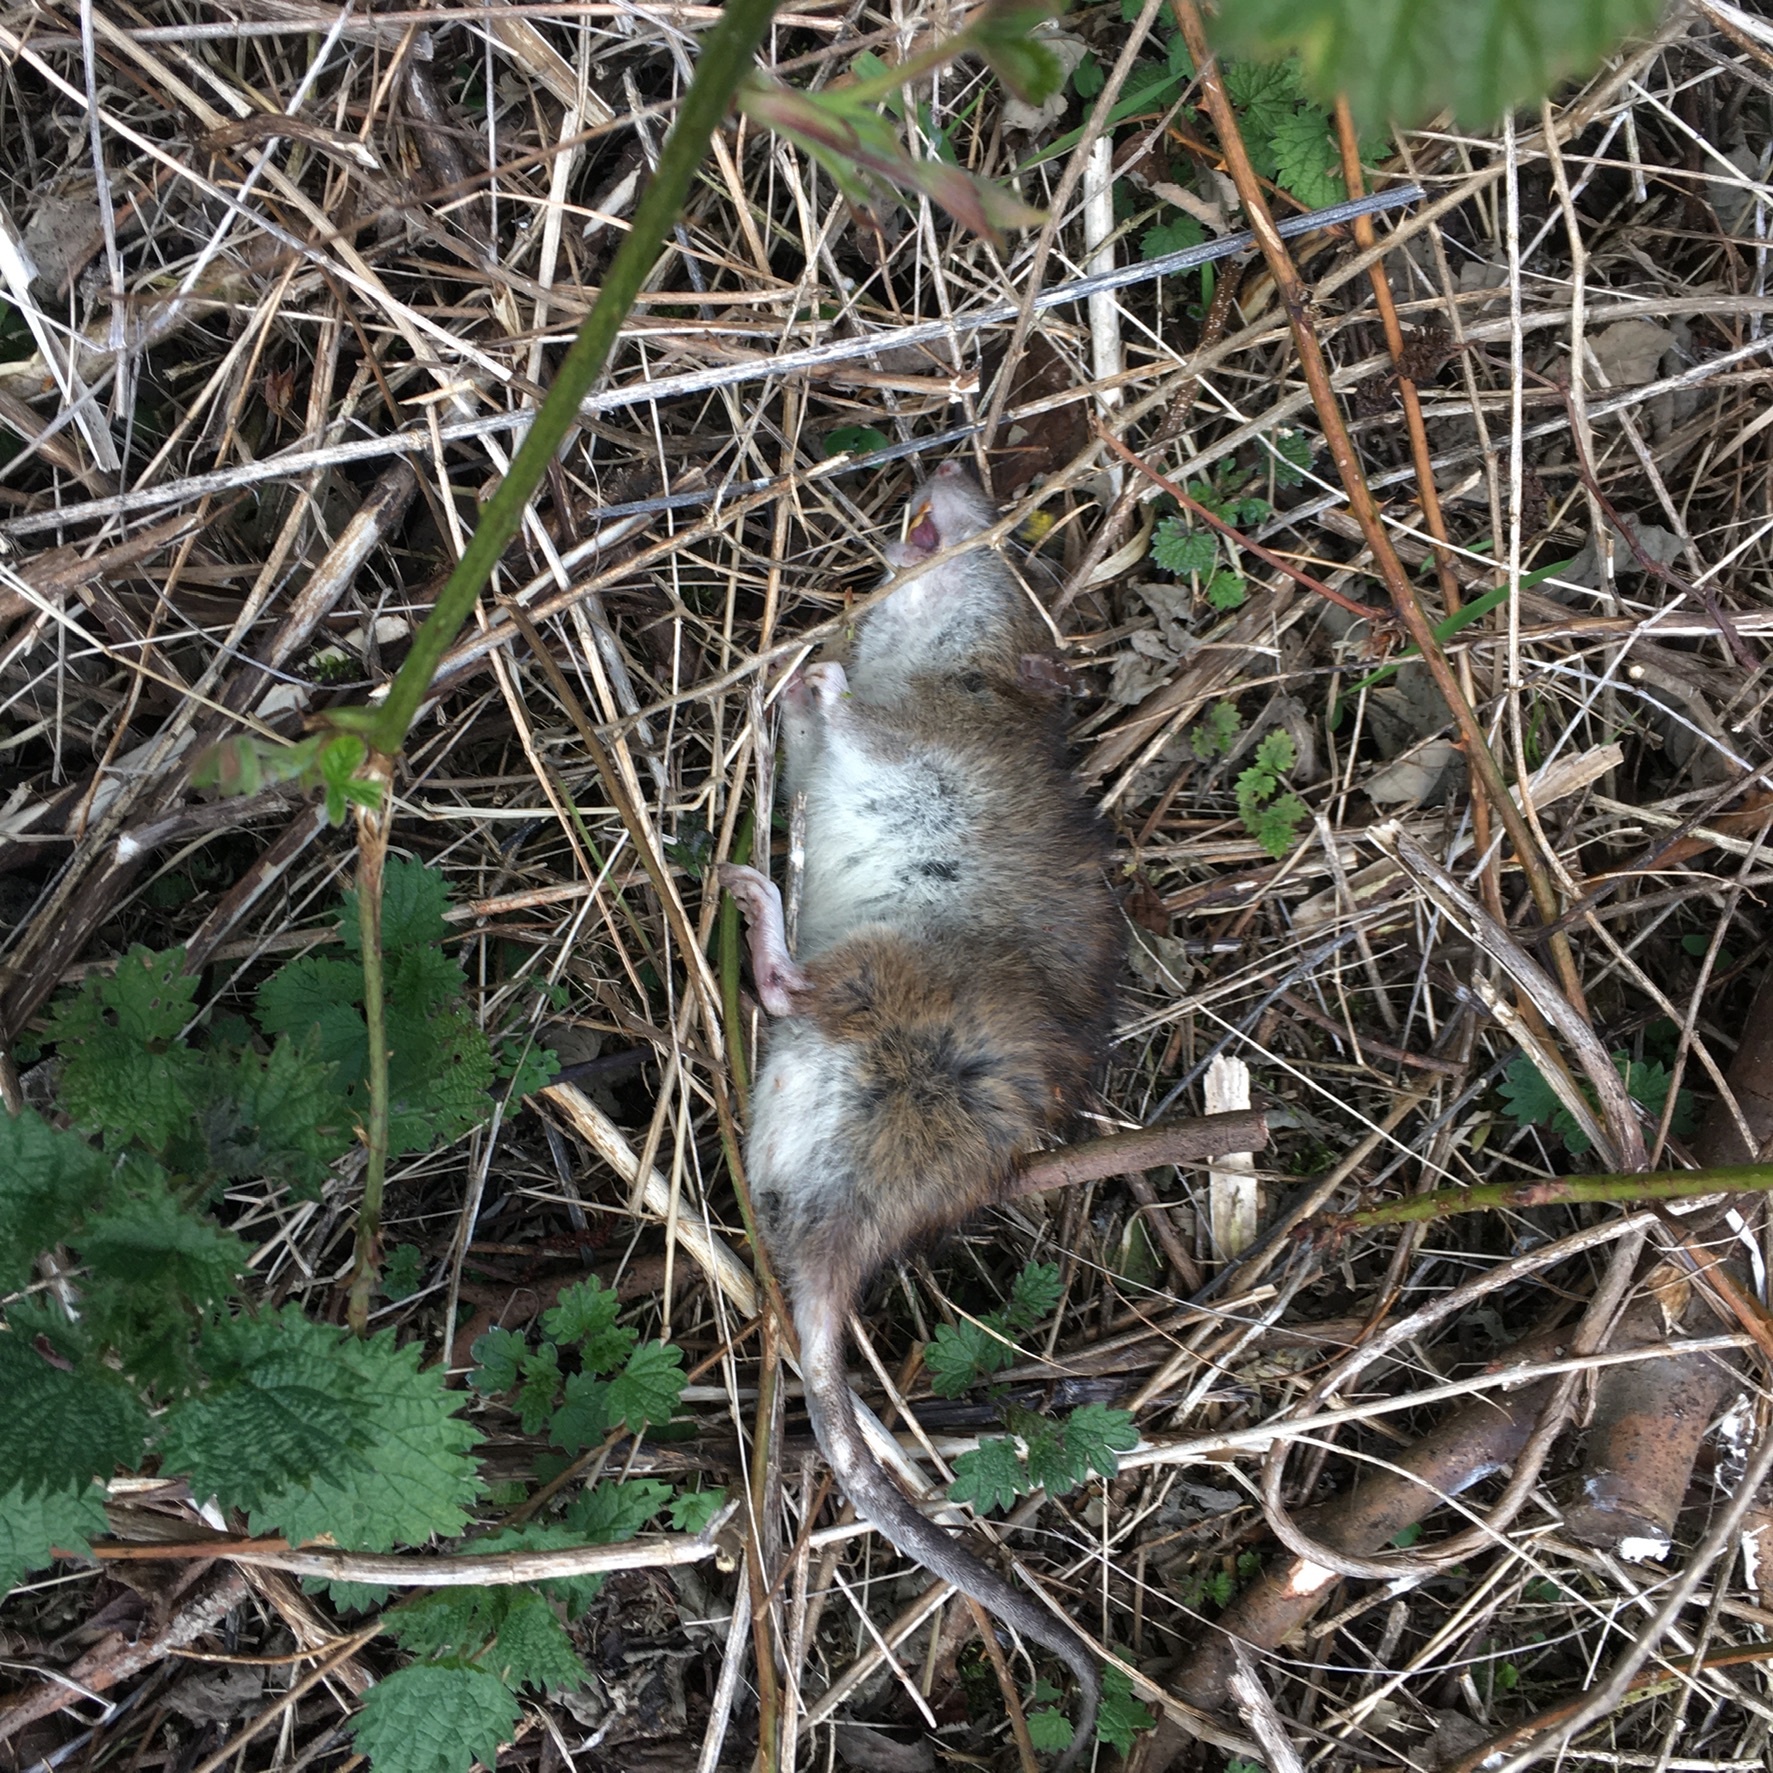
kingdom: Animalia
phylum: Chordata
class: Mammalia
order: Rodentia
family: Muridae
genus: Rattus
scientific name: Rattus norvegicus
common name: Brown rat
